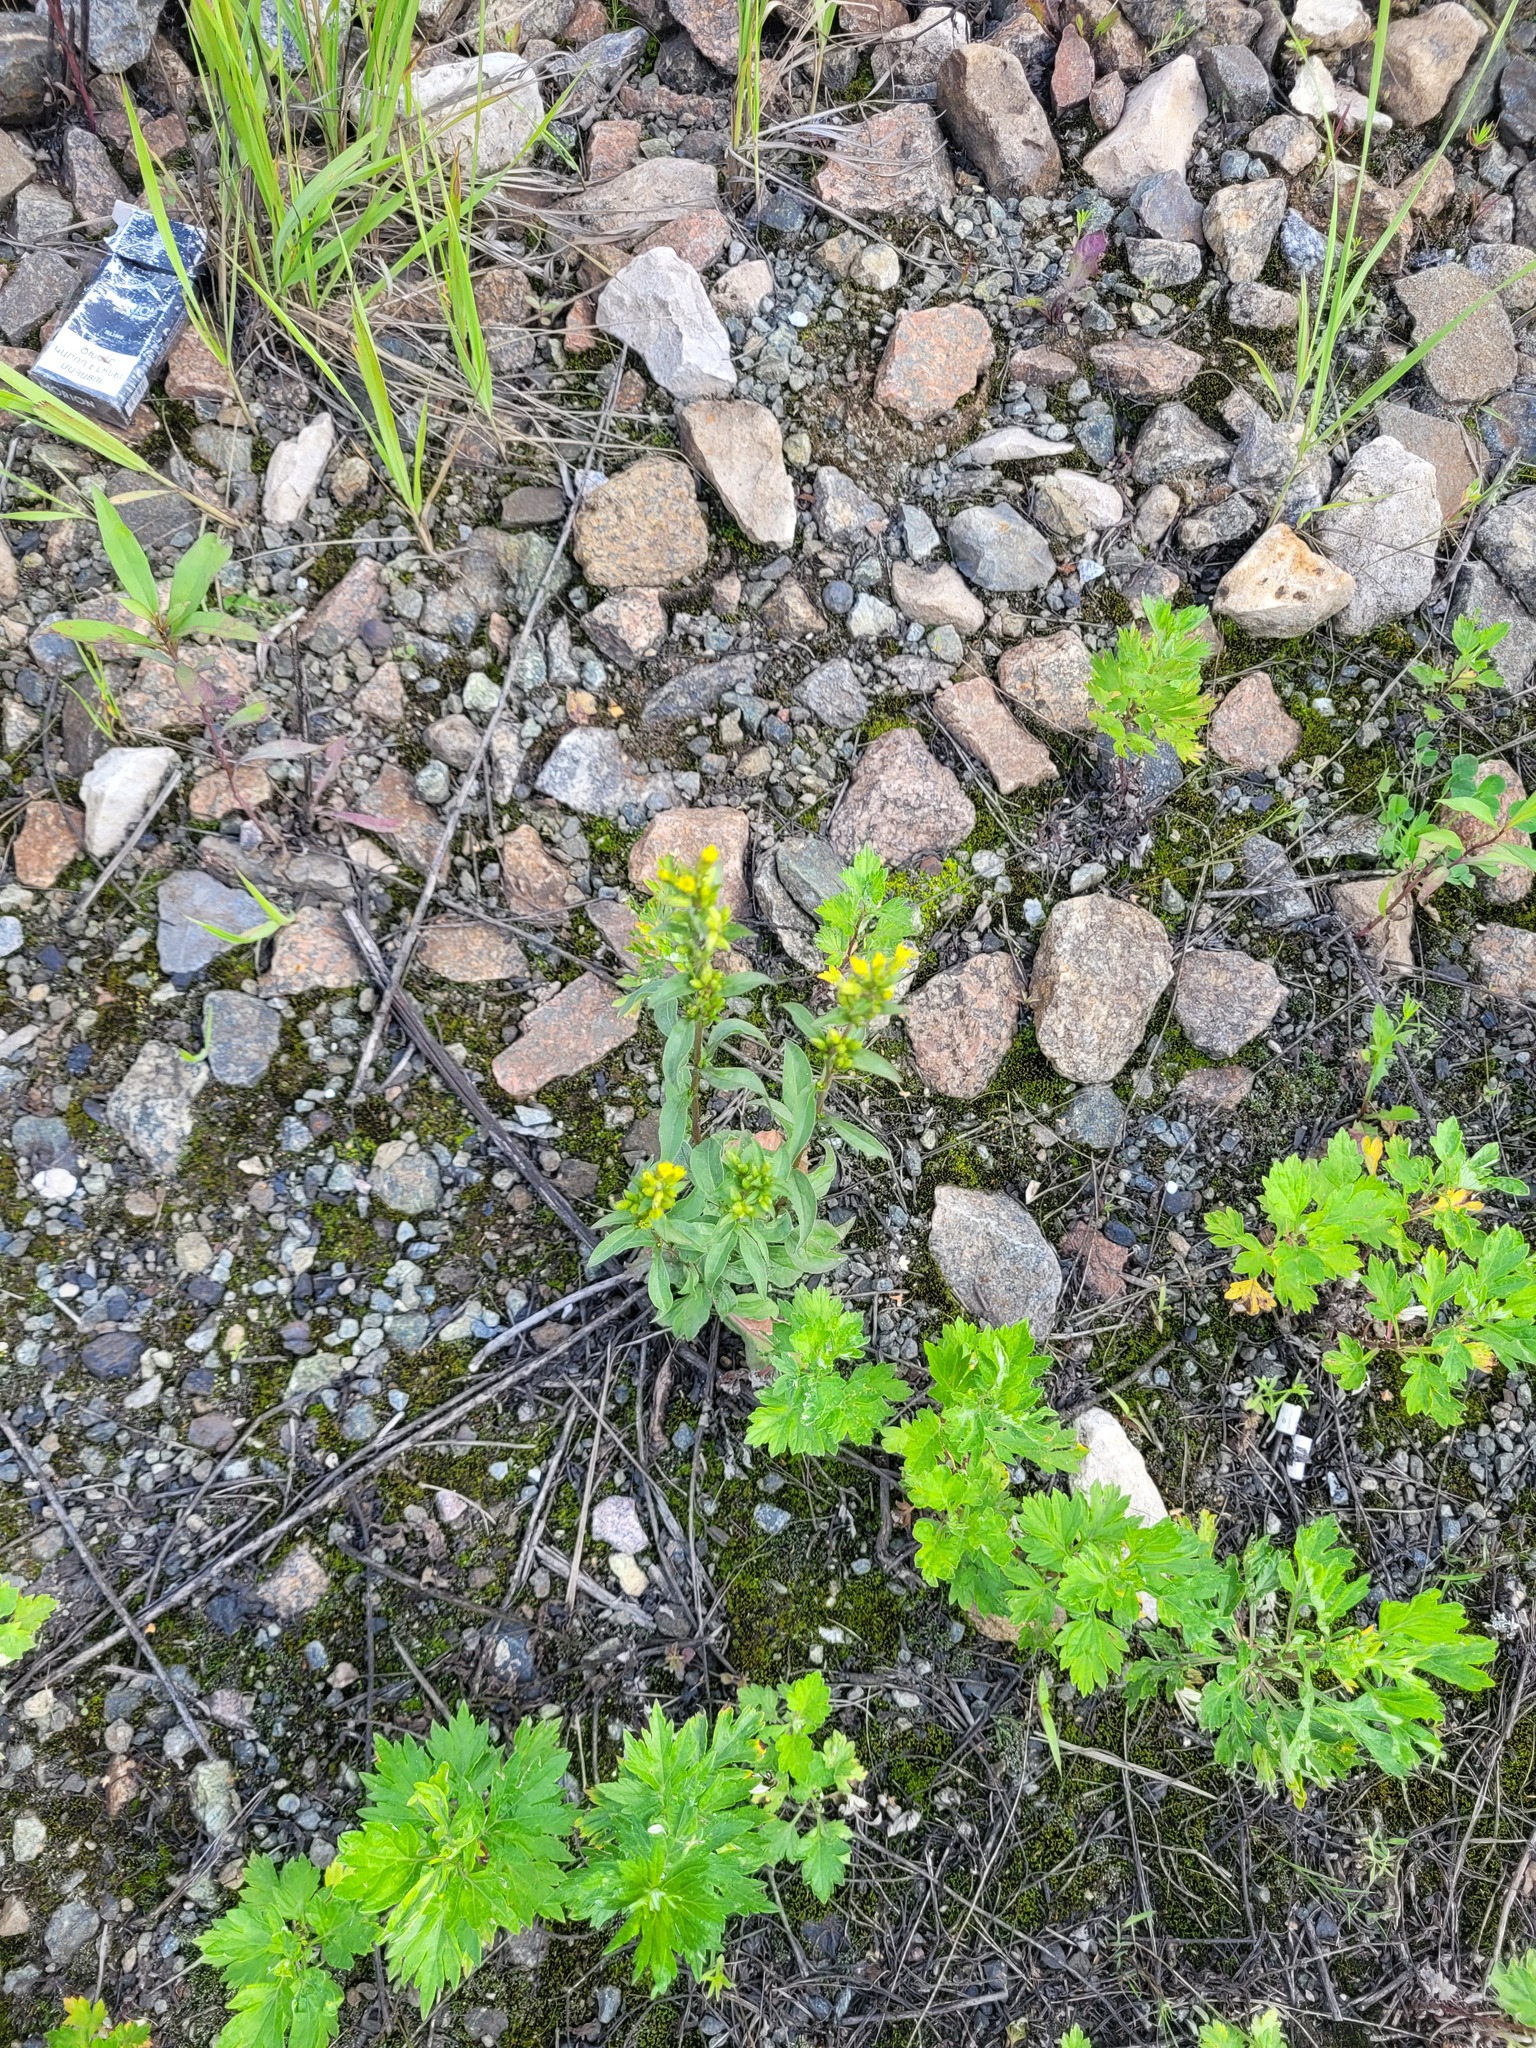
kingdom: Plantae
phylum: Tracheophyta
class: Magnoliopsida
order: Asterales
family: Asteraceae
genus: Solidago
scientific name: Solidago virgaurea
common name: Goldenrod
